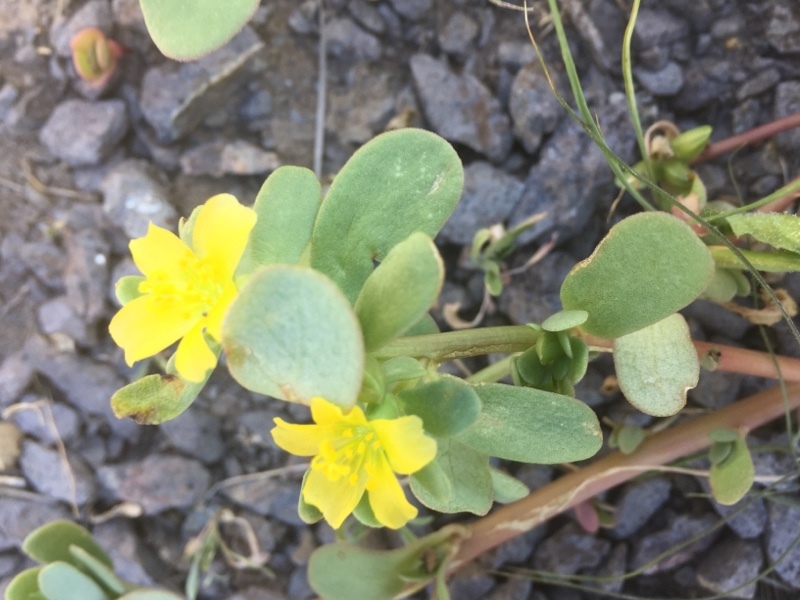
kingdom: Plantae
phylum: Tracheophyta
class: Magnoliopsida
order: Caryophyllales
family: Portulacaceae
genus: Portulaca
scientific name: Portulaca oleracea
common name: Common purslane
